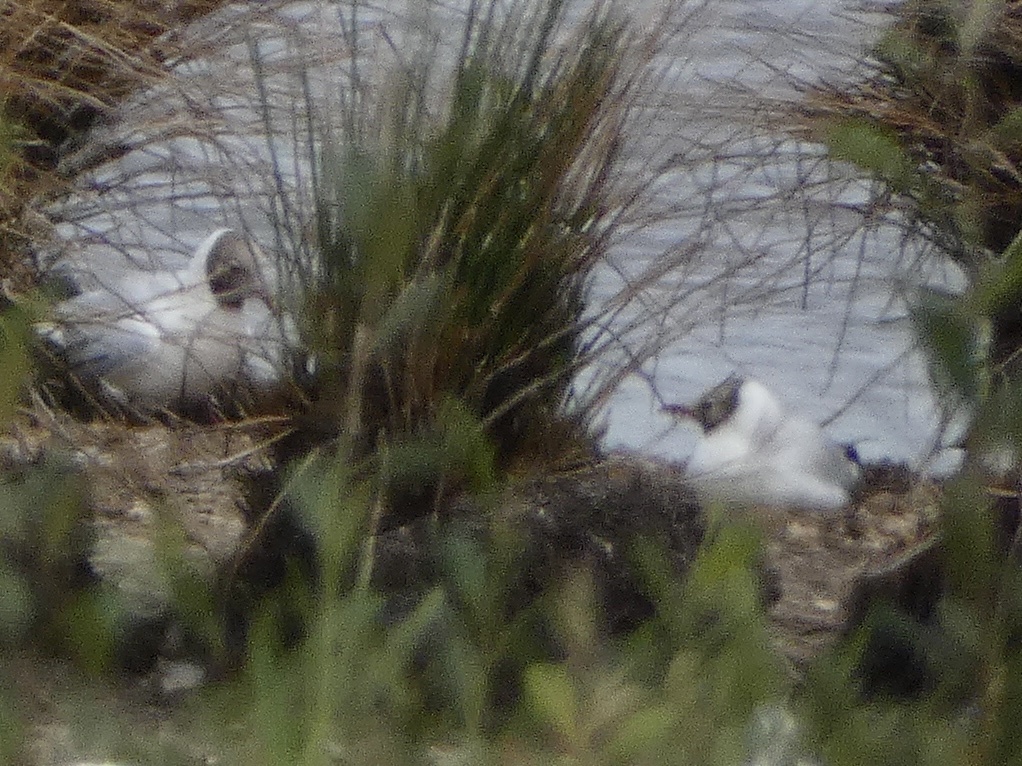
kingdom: Animalia
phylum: Chordata
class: Aves
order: Charadriiformes
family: Laridae
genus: Chroicocephalus
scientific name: Chroicocephalus ridibundus
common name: Black-headed gull
